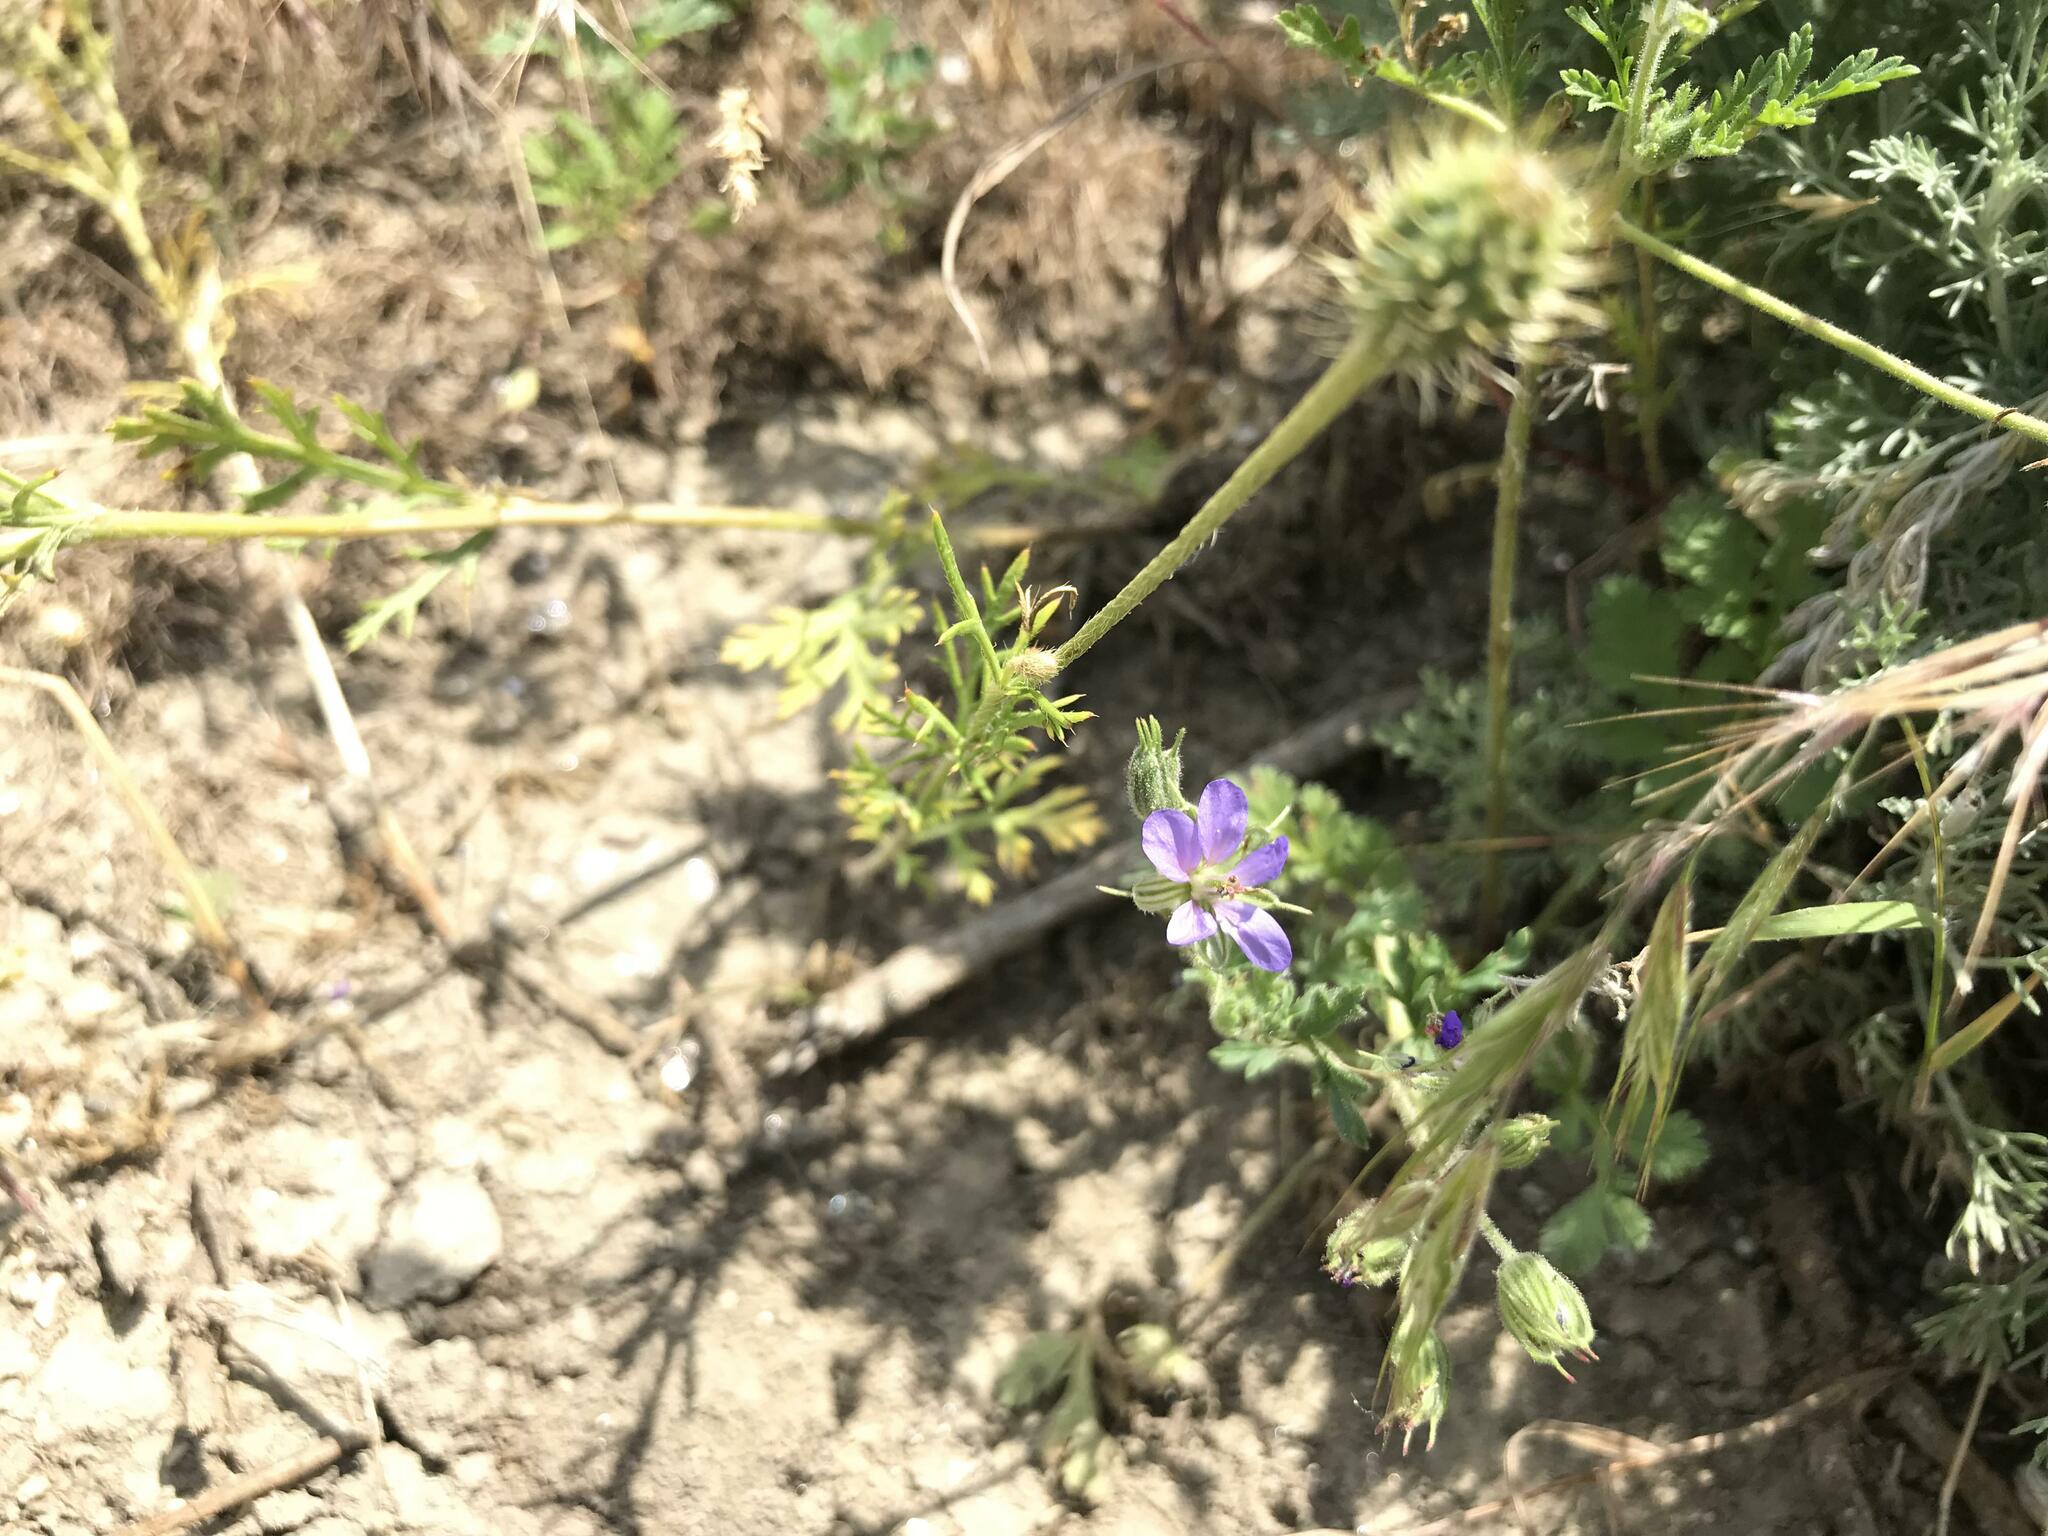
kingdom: Plantae
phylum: Tracheophyta
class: Magnoliopsida
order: Geraniales
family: Geraniaceae
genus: Erodium
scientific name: Erodium ciconium
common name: Common stork's bill
